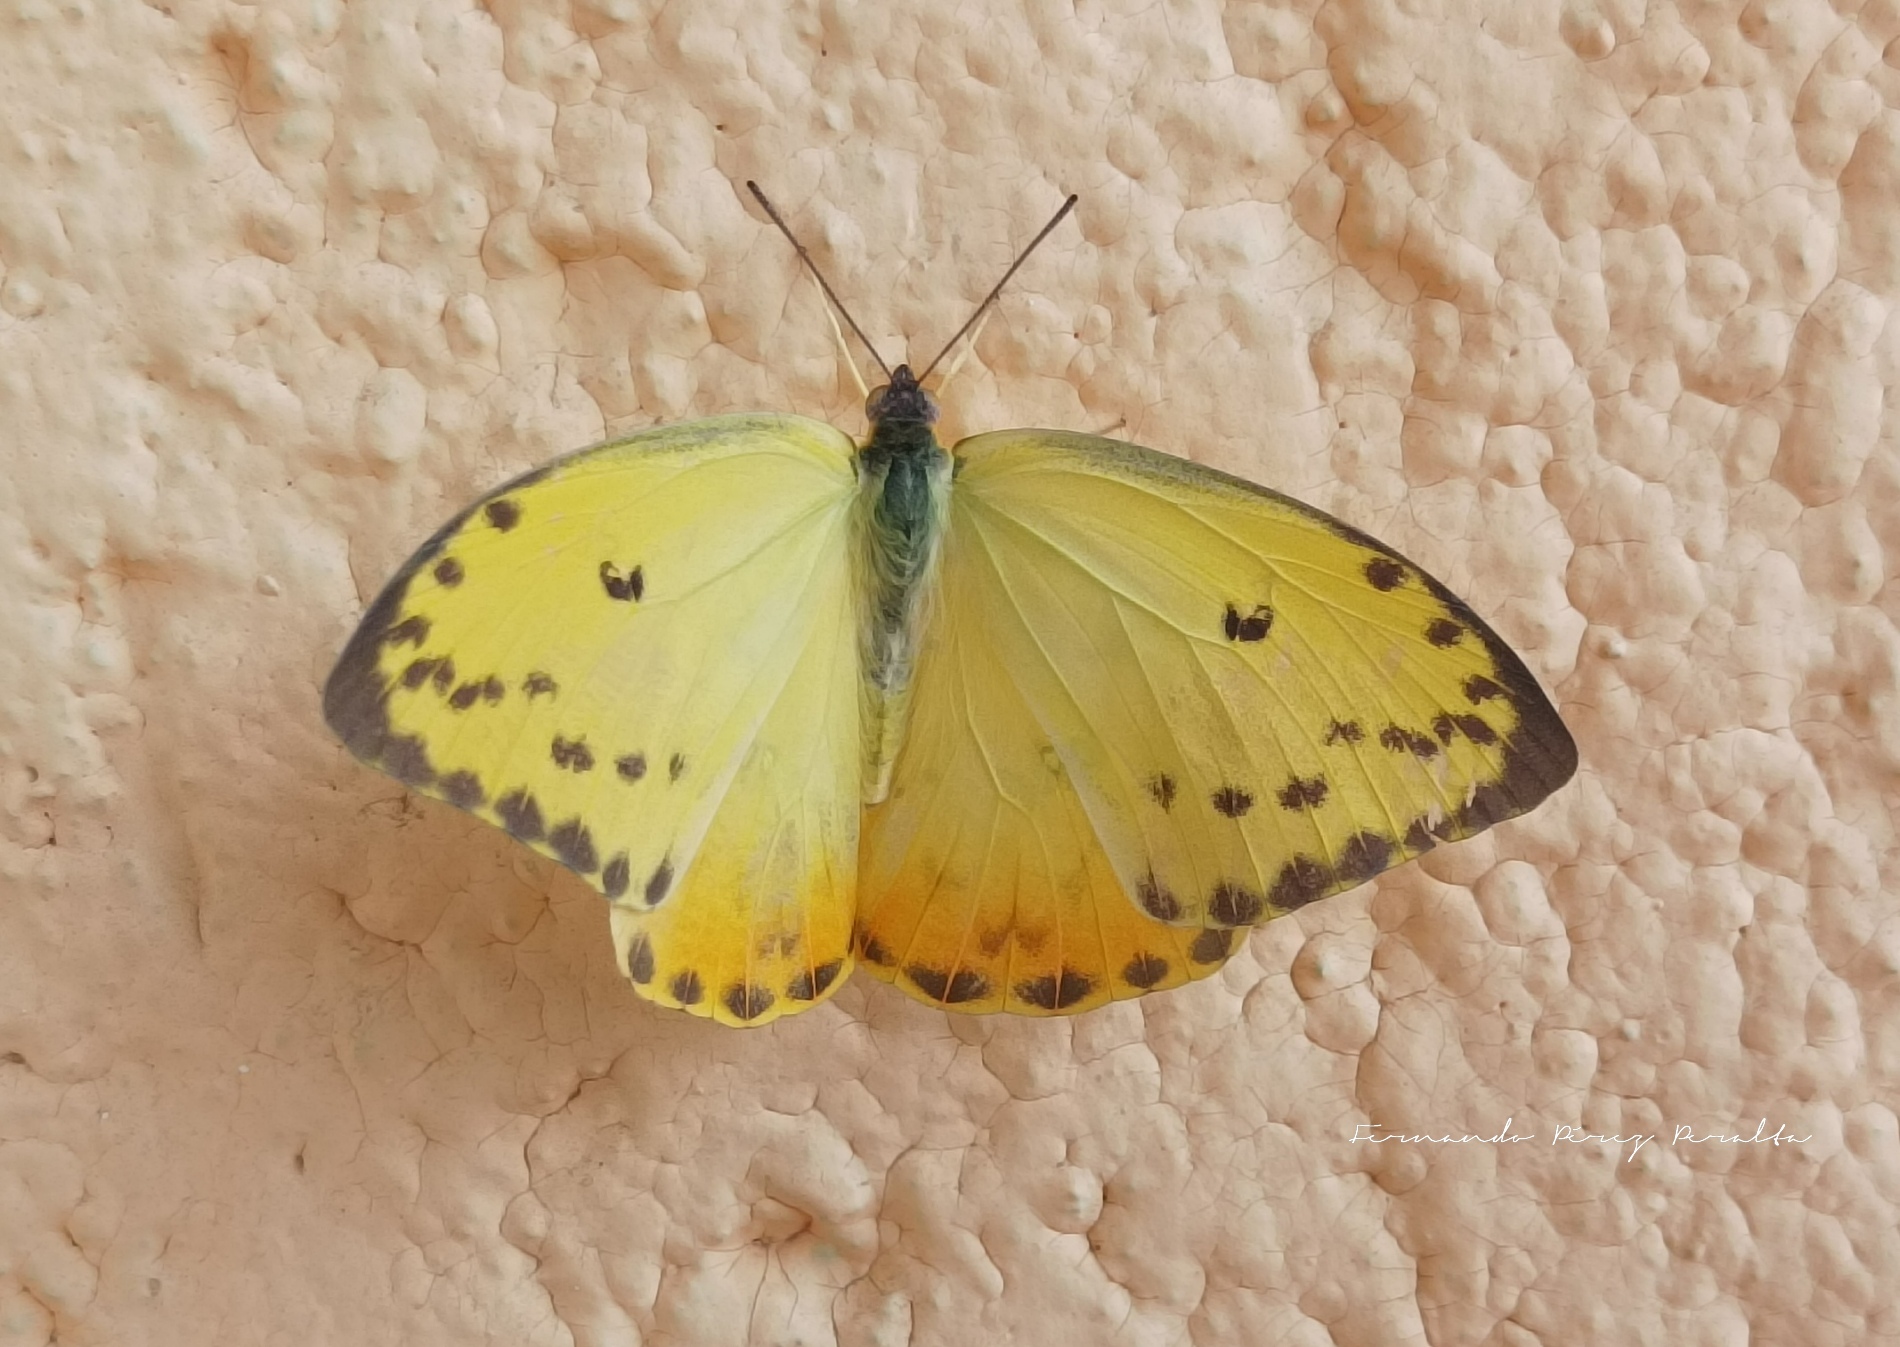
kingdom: Animalia
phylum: Arthropoda
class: Insecta
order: Lepidoptera
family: Pieridae
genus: Phoebis
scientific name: Phoebis philea
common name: Orange-barred giant sulphur
